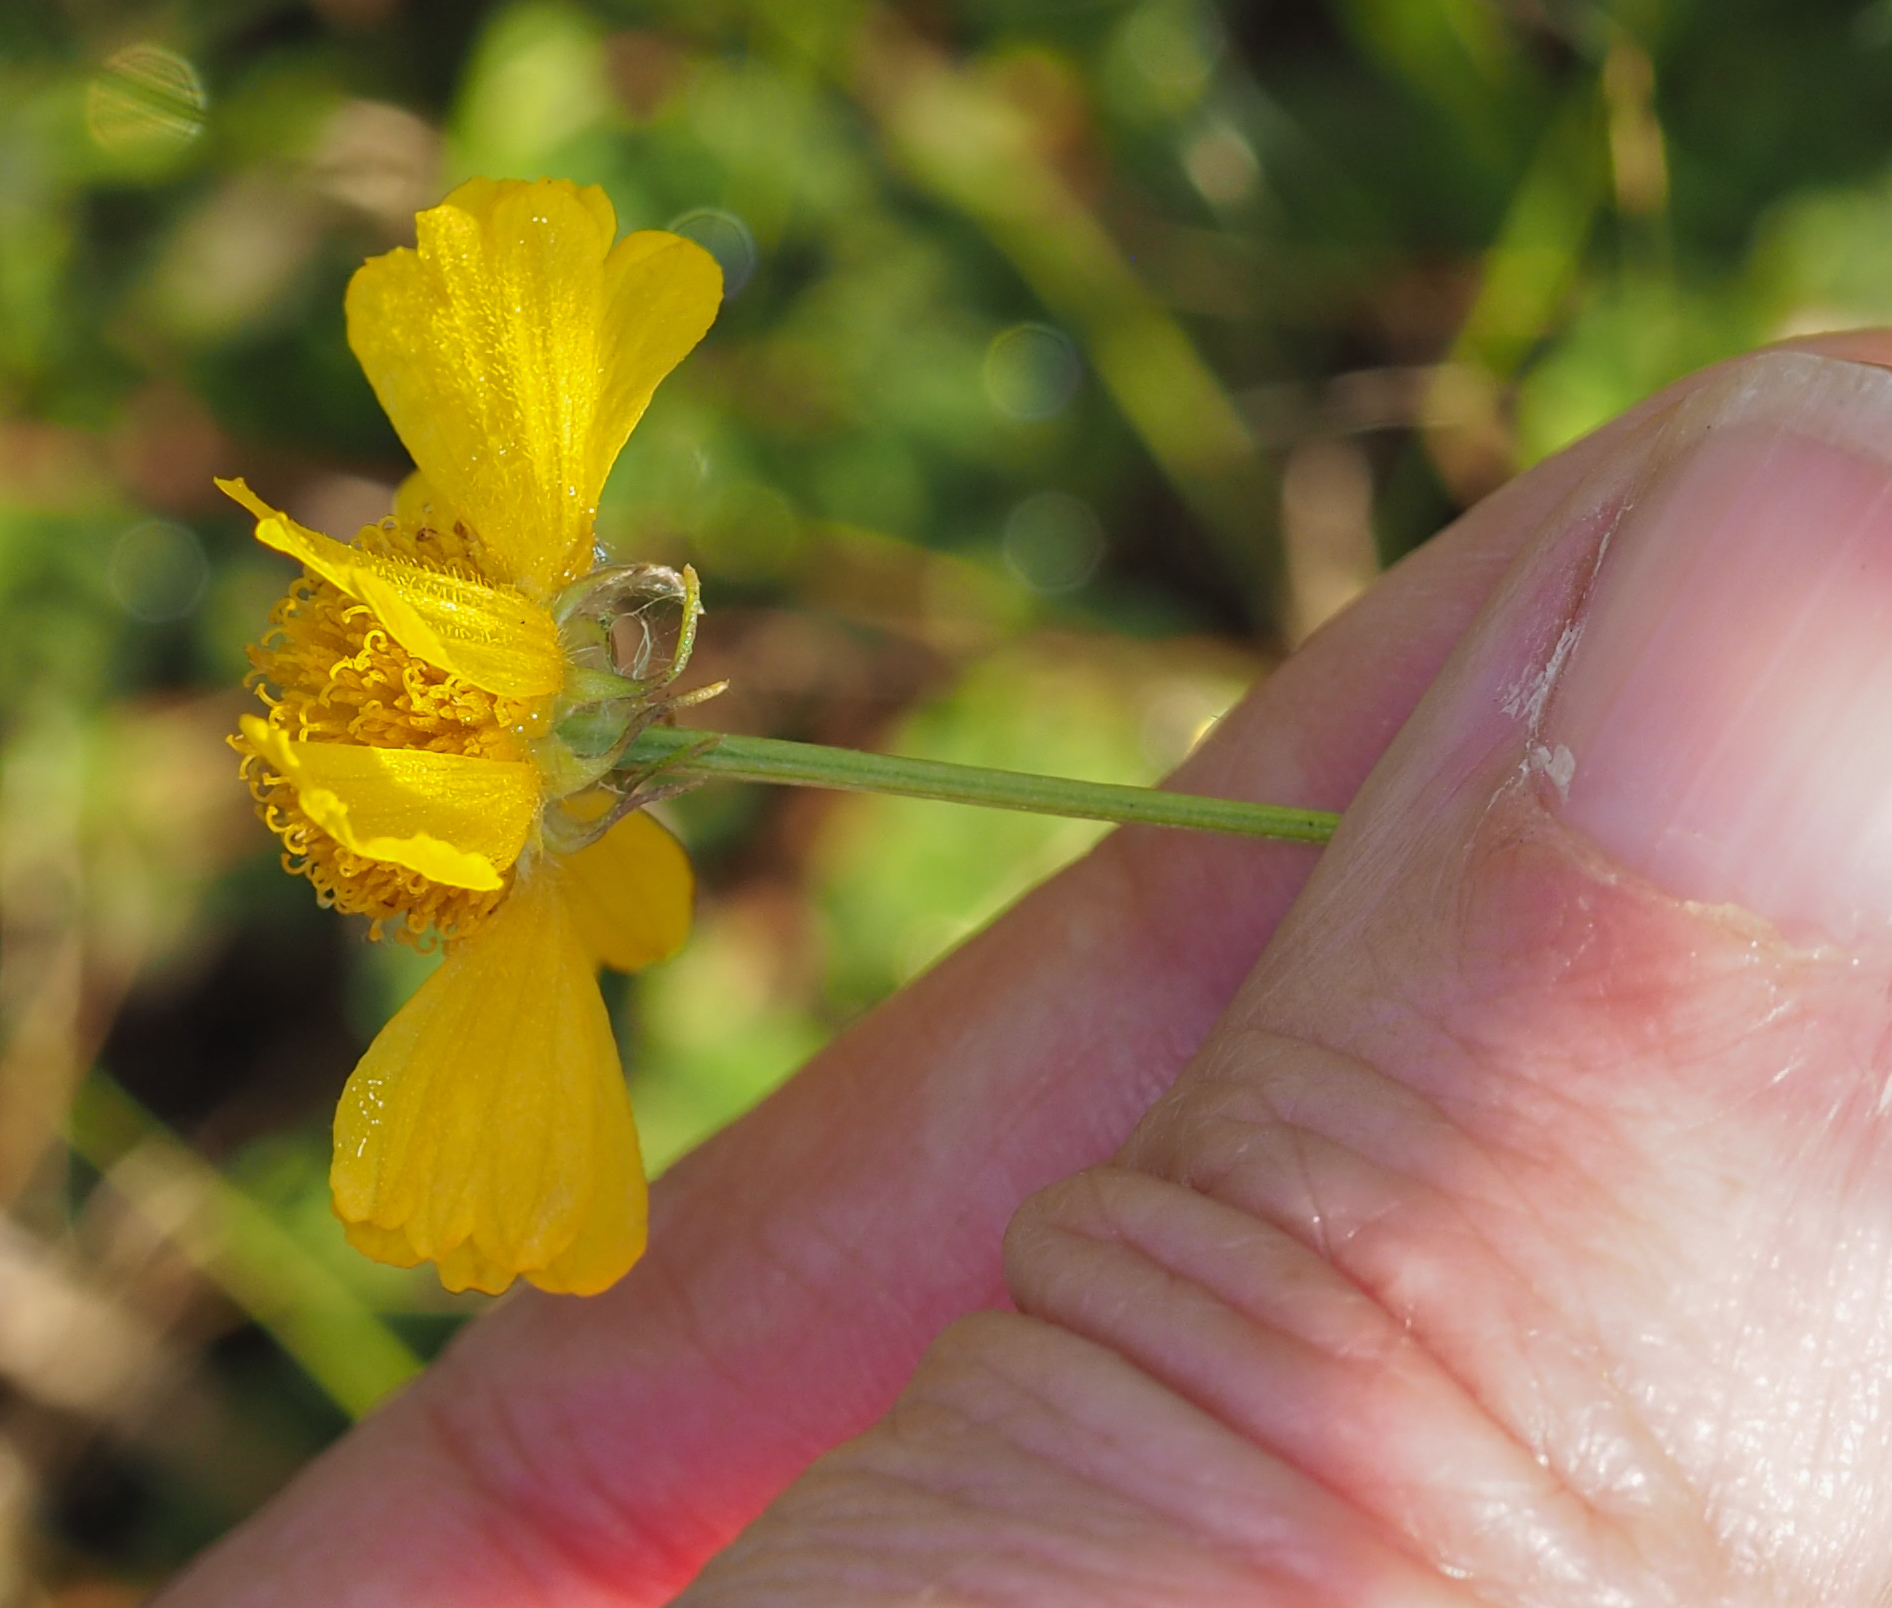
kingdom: Plantae
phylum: Tracheophyta
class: Magnoliopsida
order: Asterales
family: Asteraceae
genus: Helenium
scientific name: Helenium amarum
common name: Bitter sneezeweed
